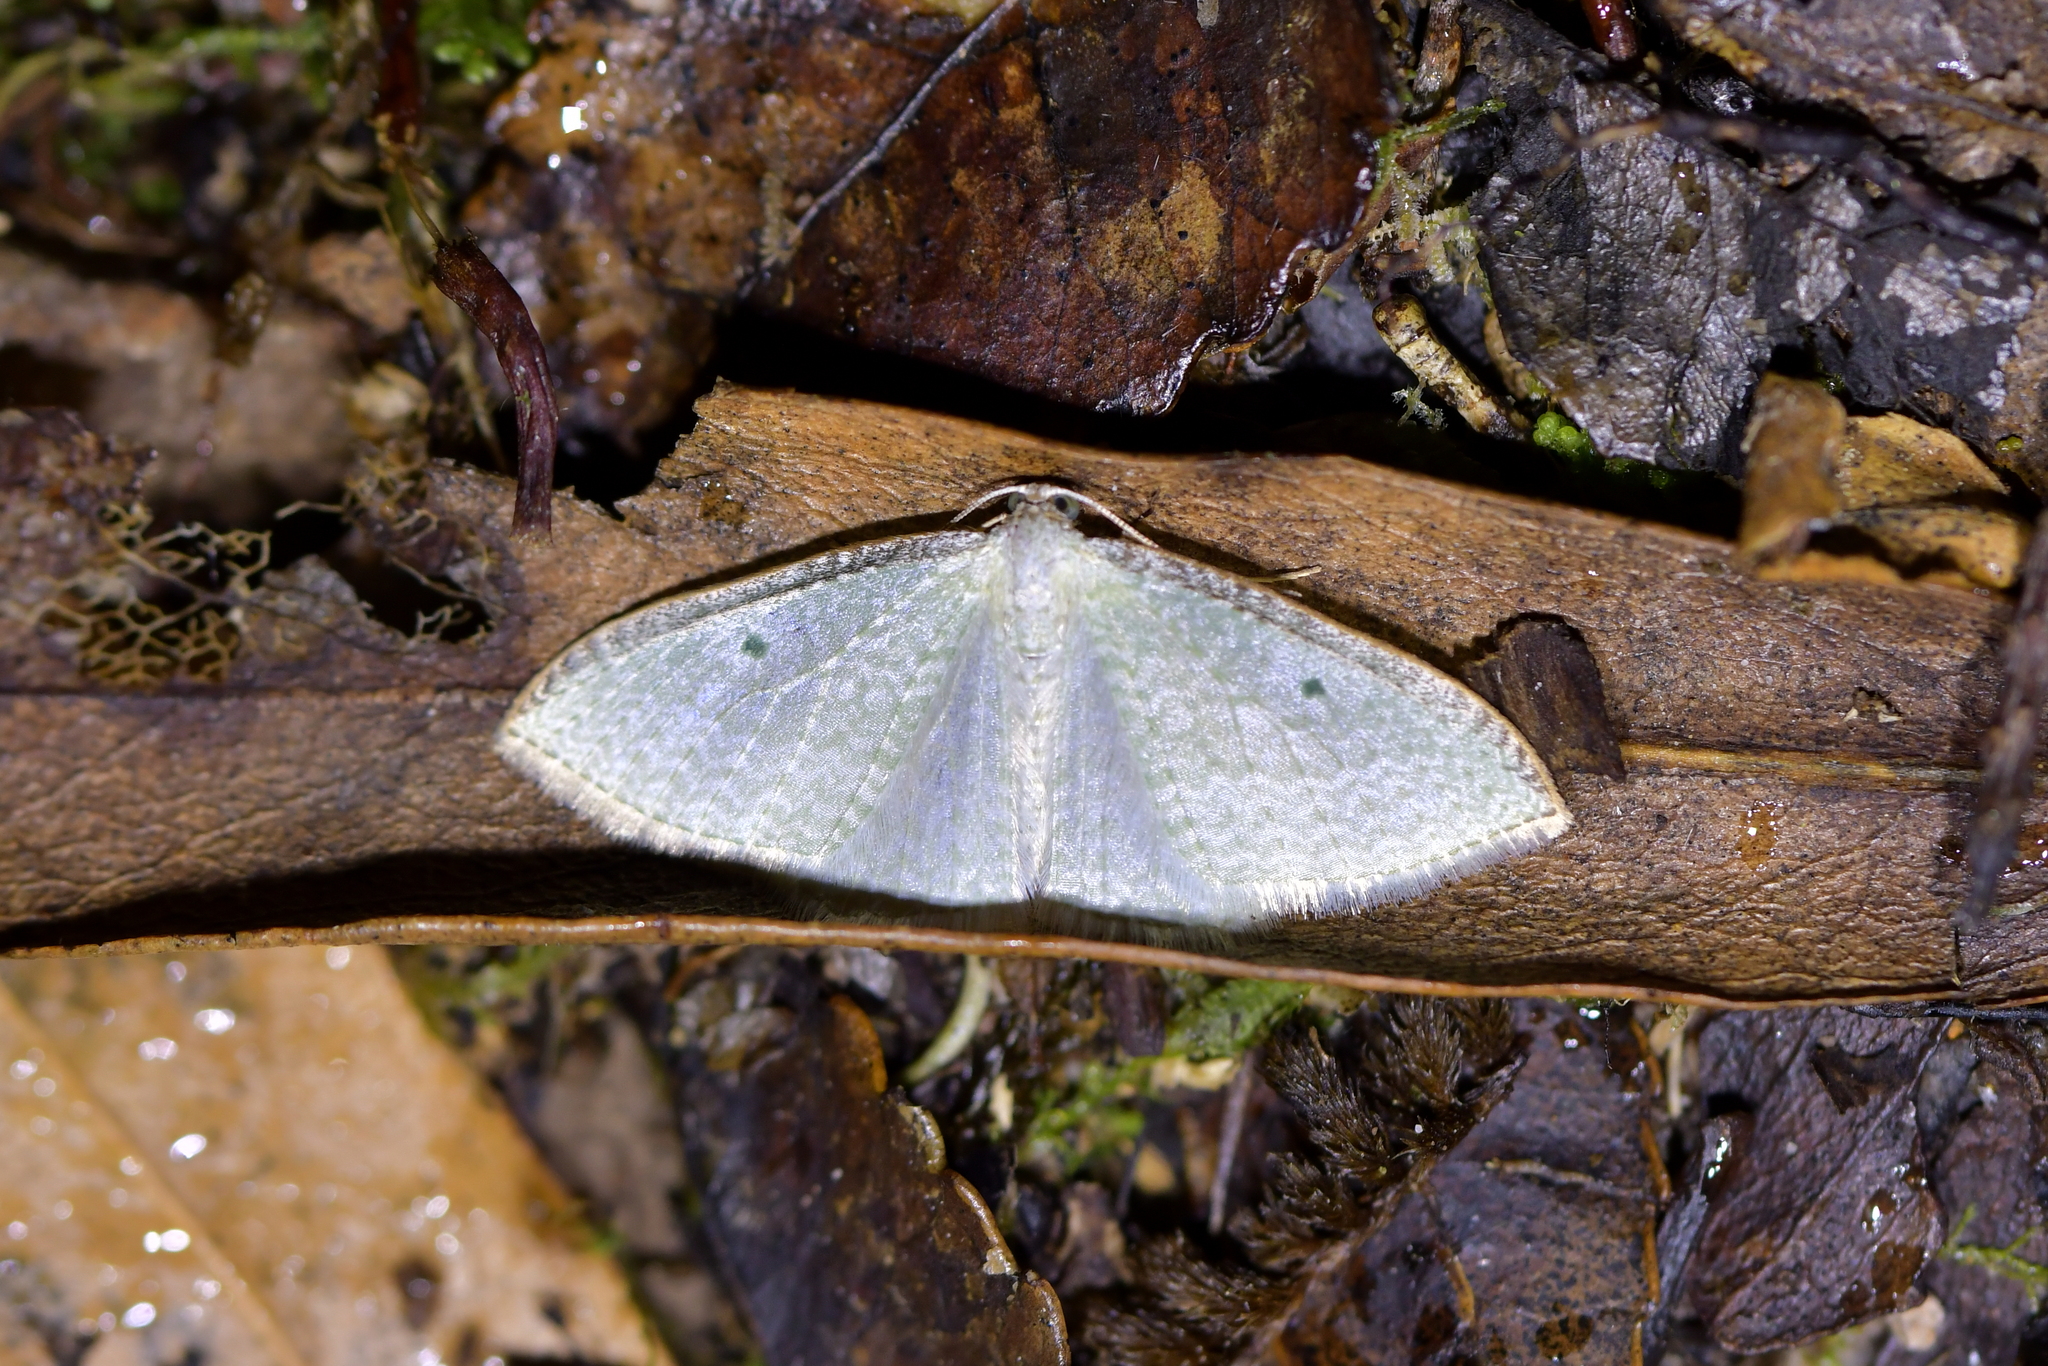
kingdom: Animalia
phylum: Arthropoda
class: Insecta
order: Lepidoptera
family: Geometridae
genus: Poecilasthena
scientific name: Poecilasthena pulchraria
